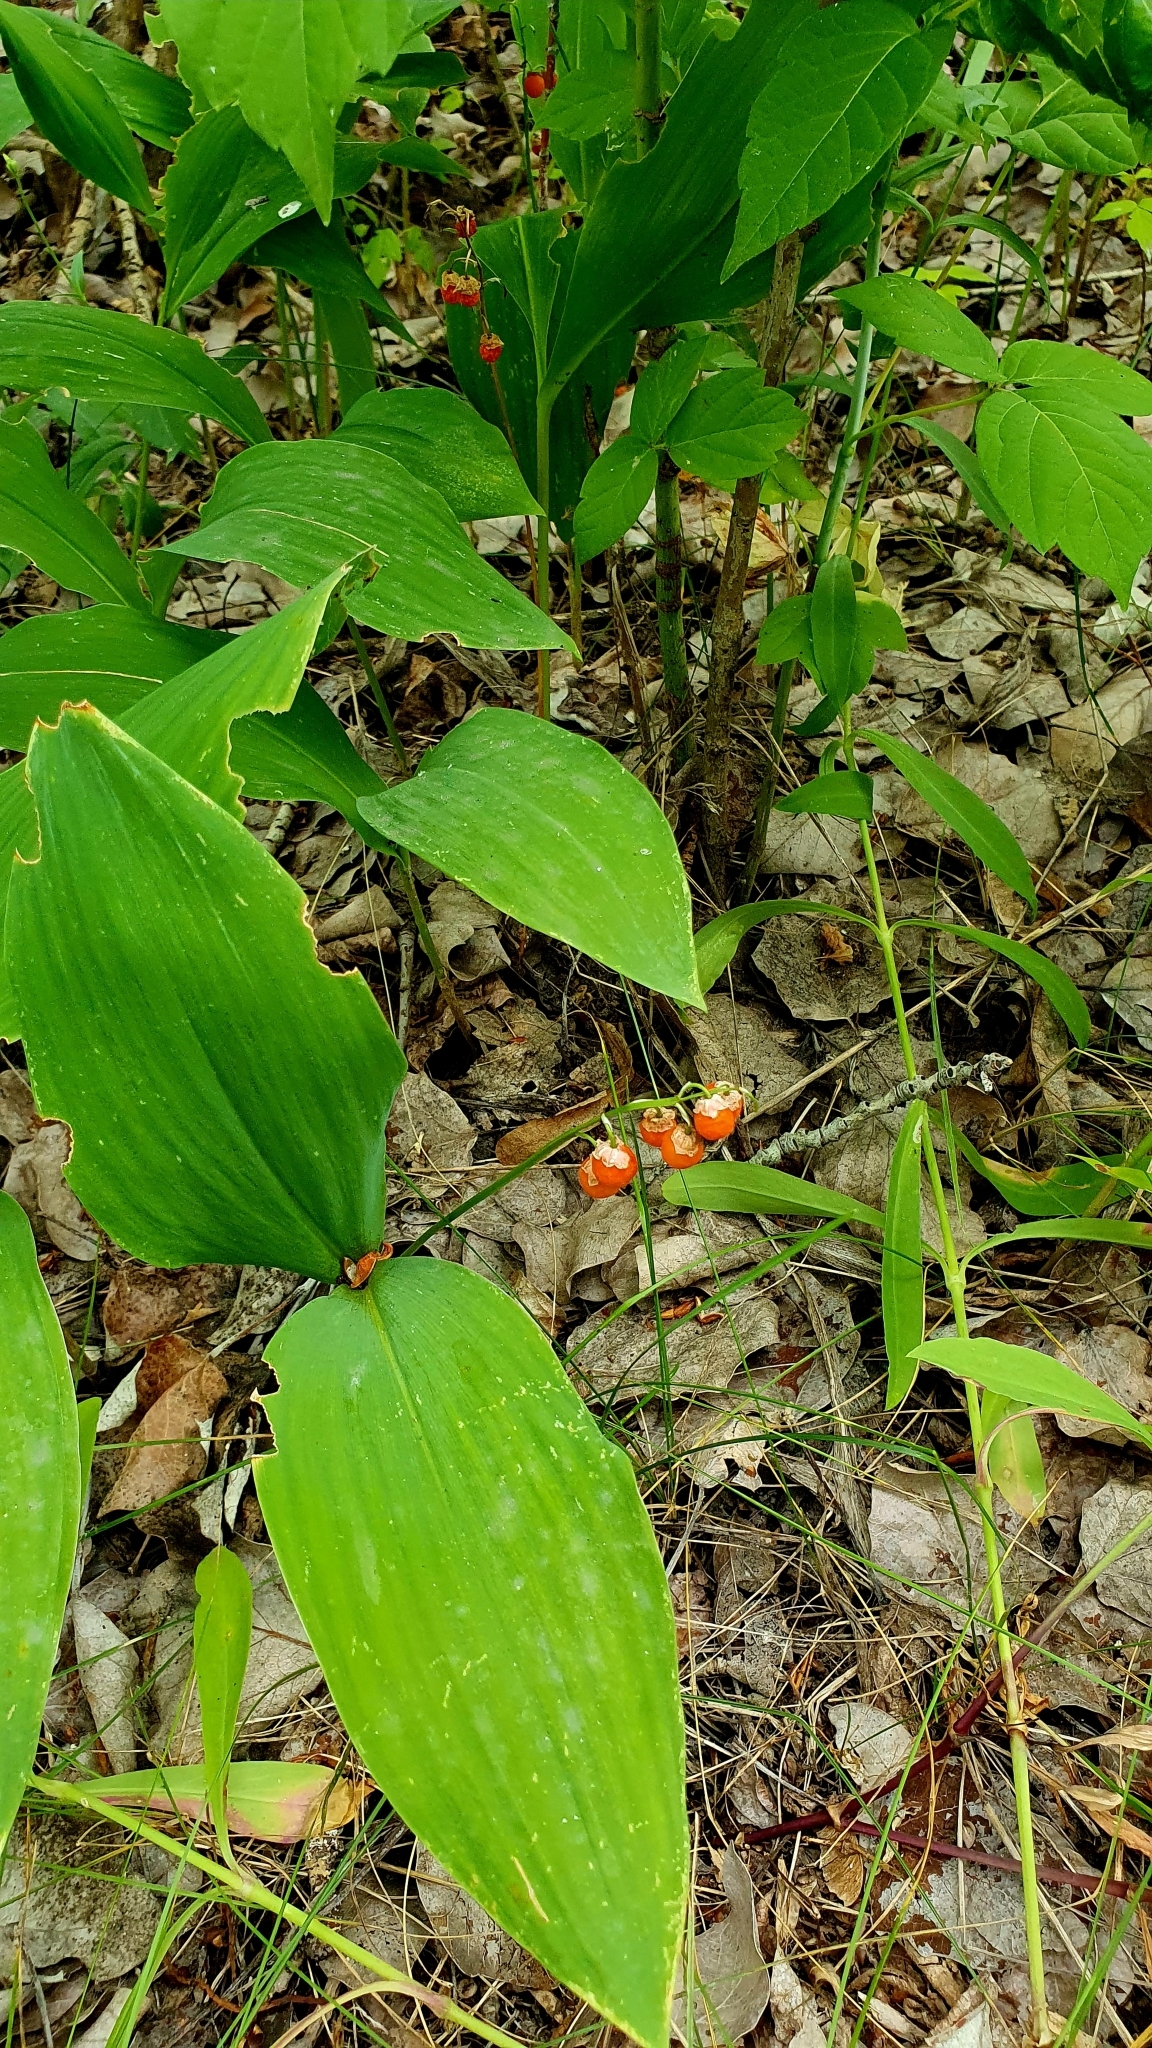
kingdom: Plantae
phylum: Tracheophyta
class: Liliopsida
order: Asparagales
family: Asparagaceae
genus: Convallaria
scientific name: Convallaria majalis
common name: Lily-of-the-valley
